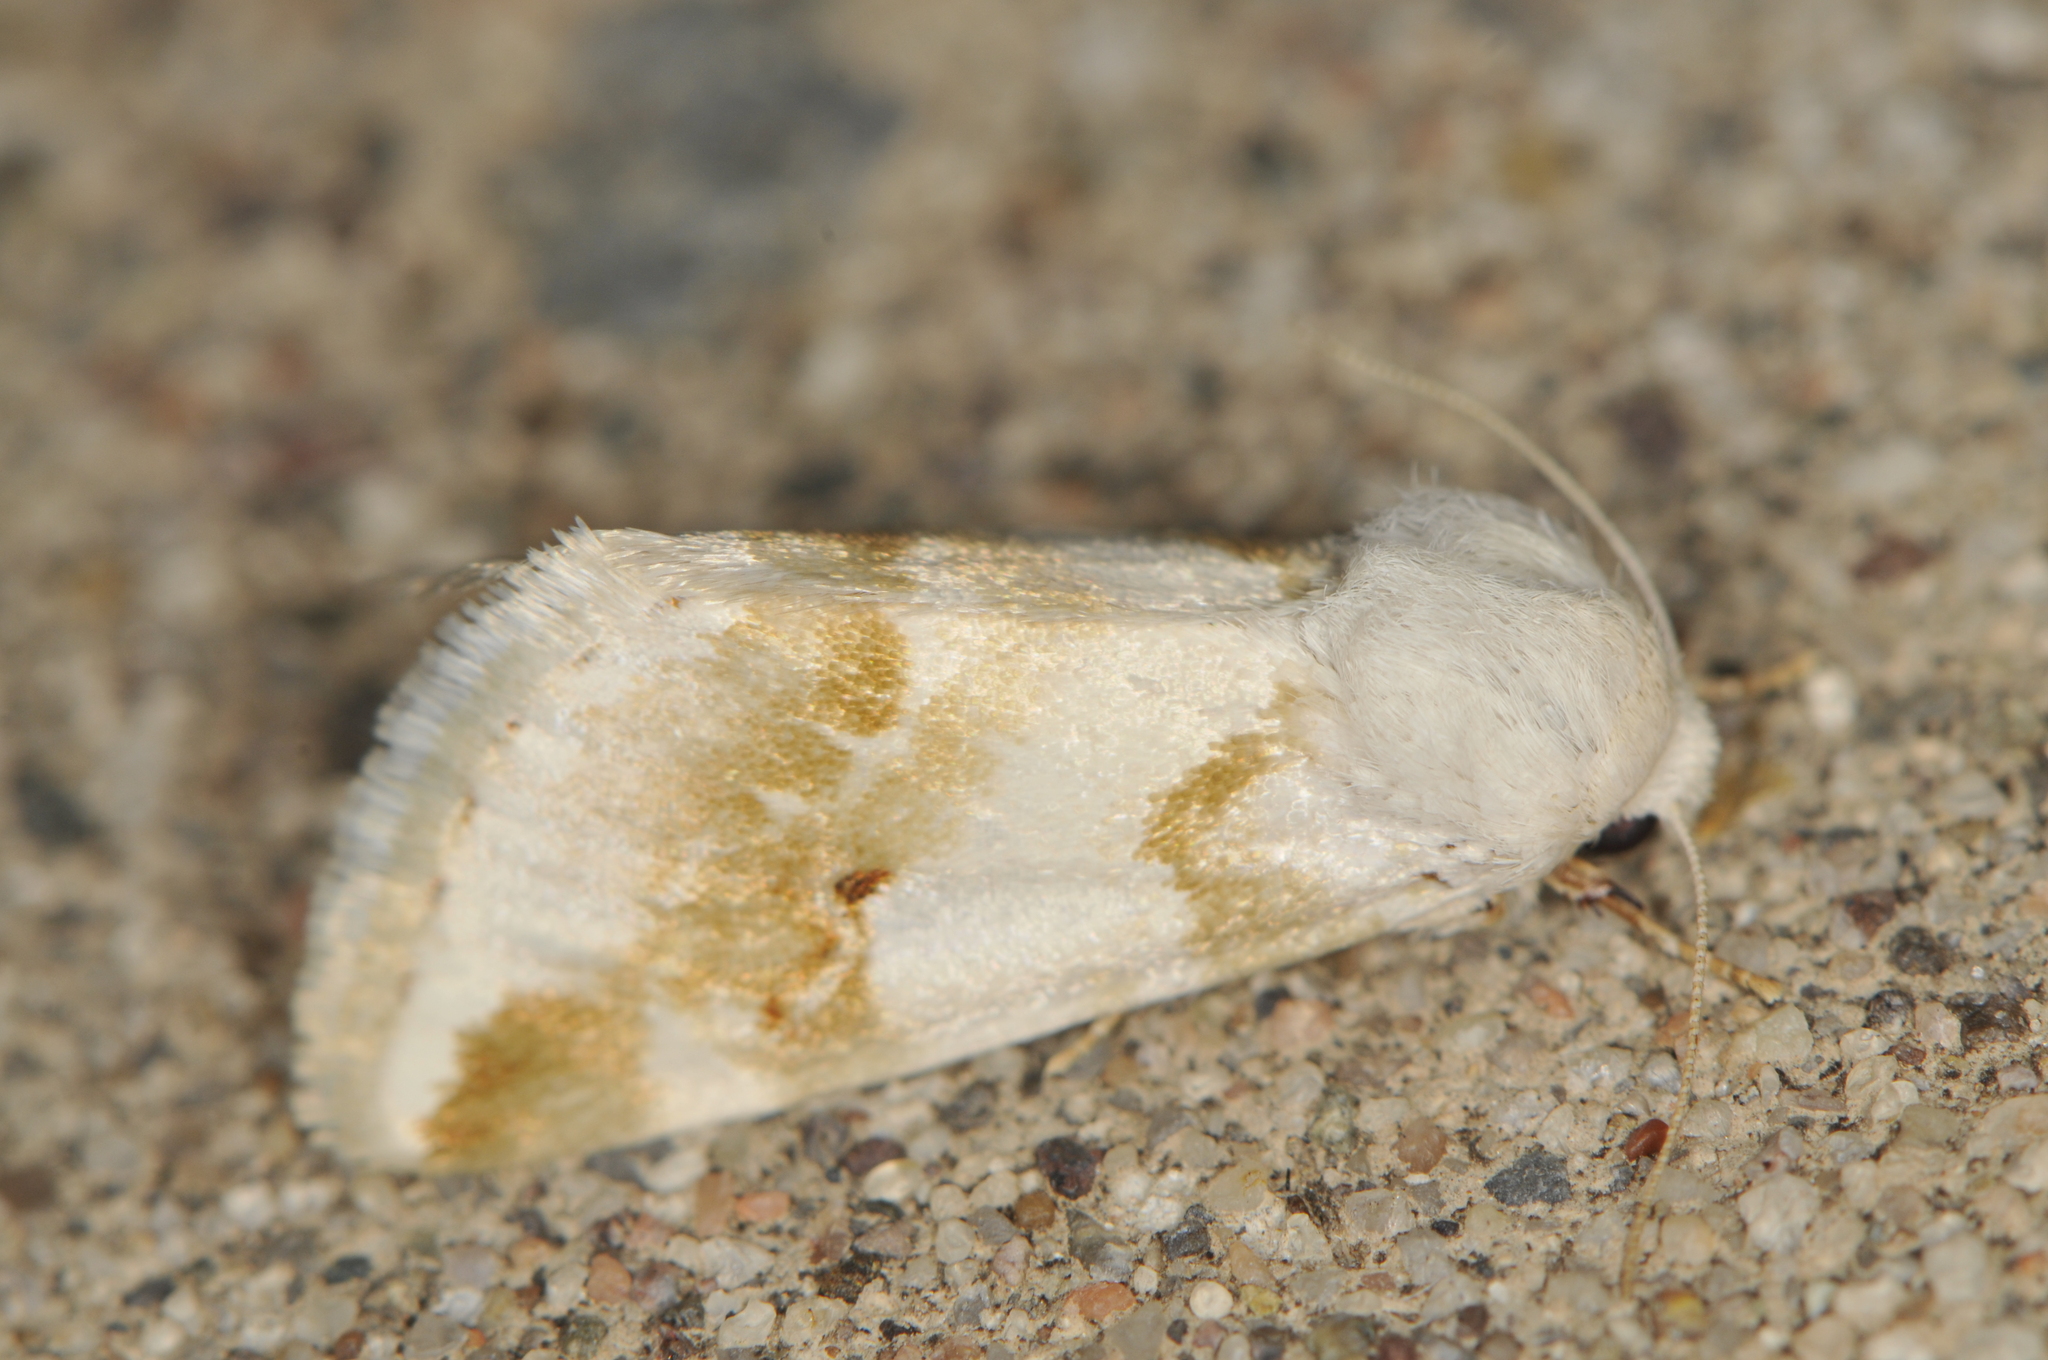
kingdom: Animalia
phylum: Arthropoda
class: Insecta
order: Lepidoptera
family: Noctuidae
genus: Schinia
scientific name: Schinia unimacula
